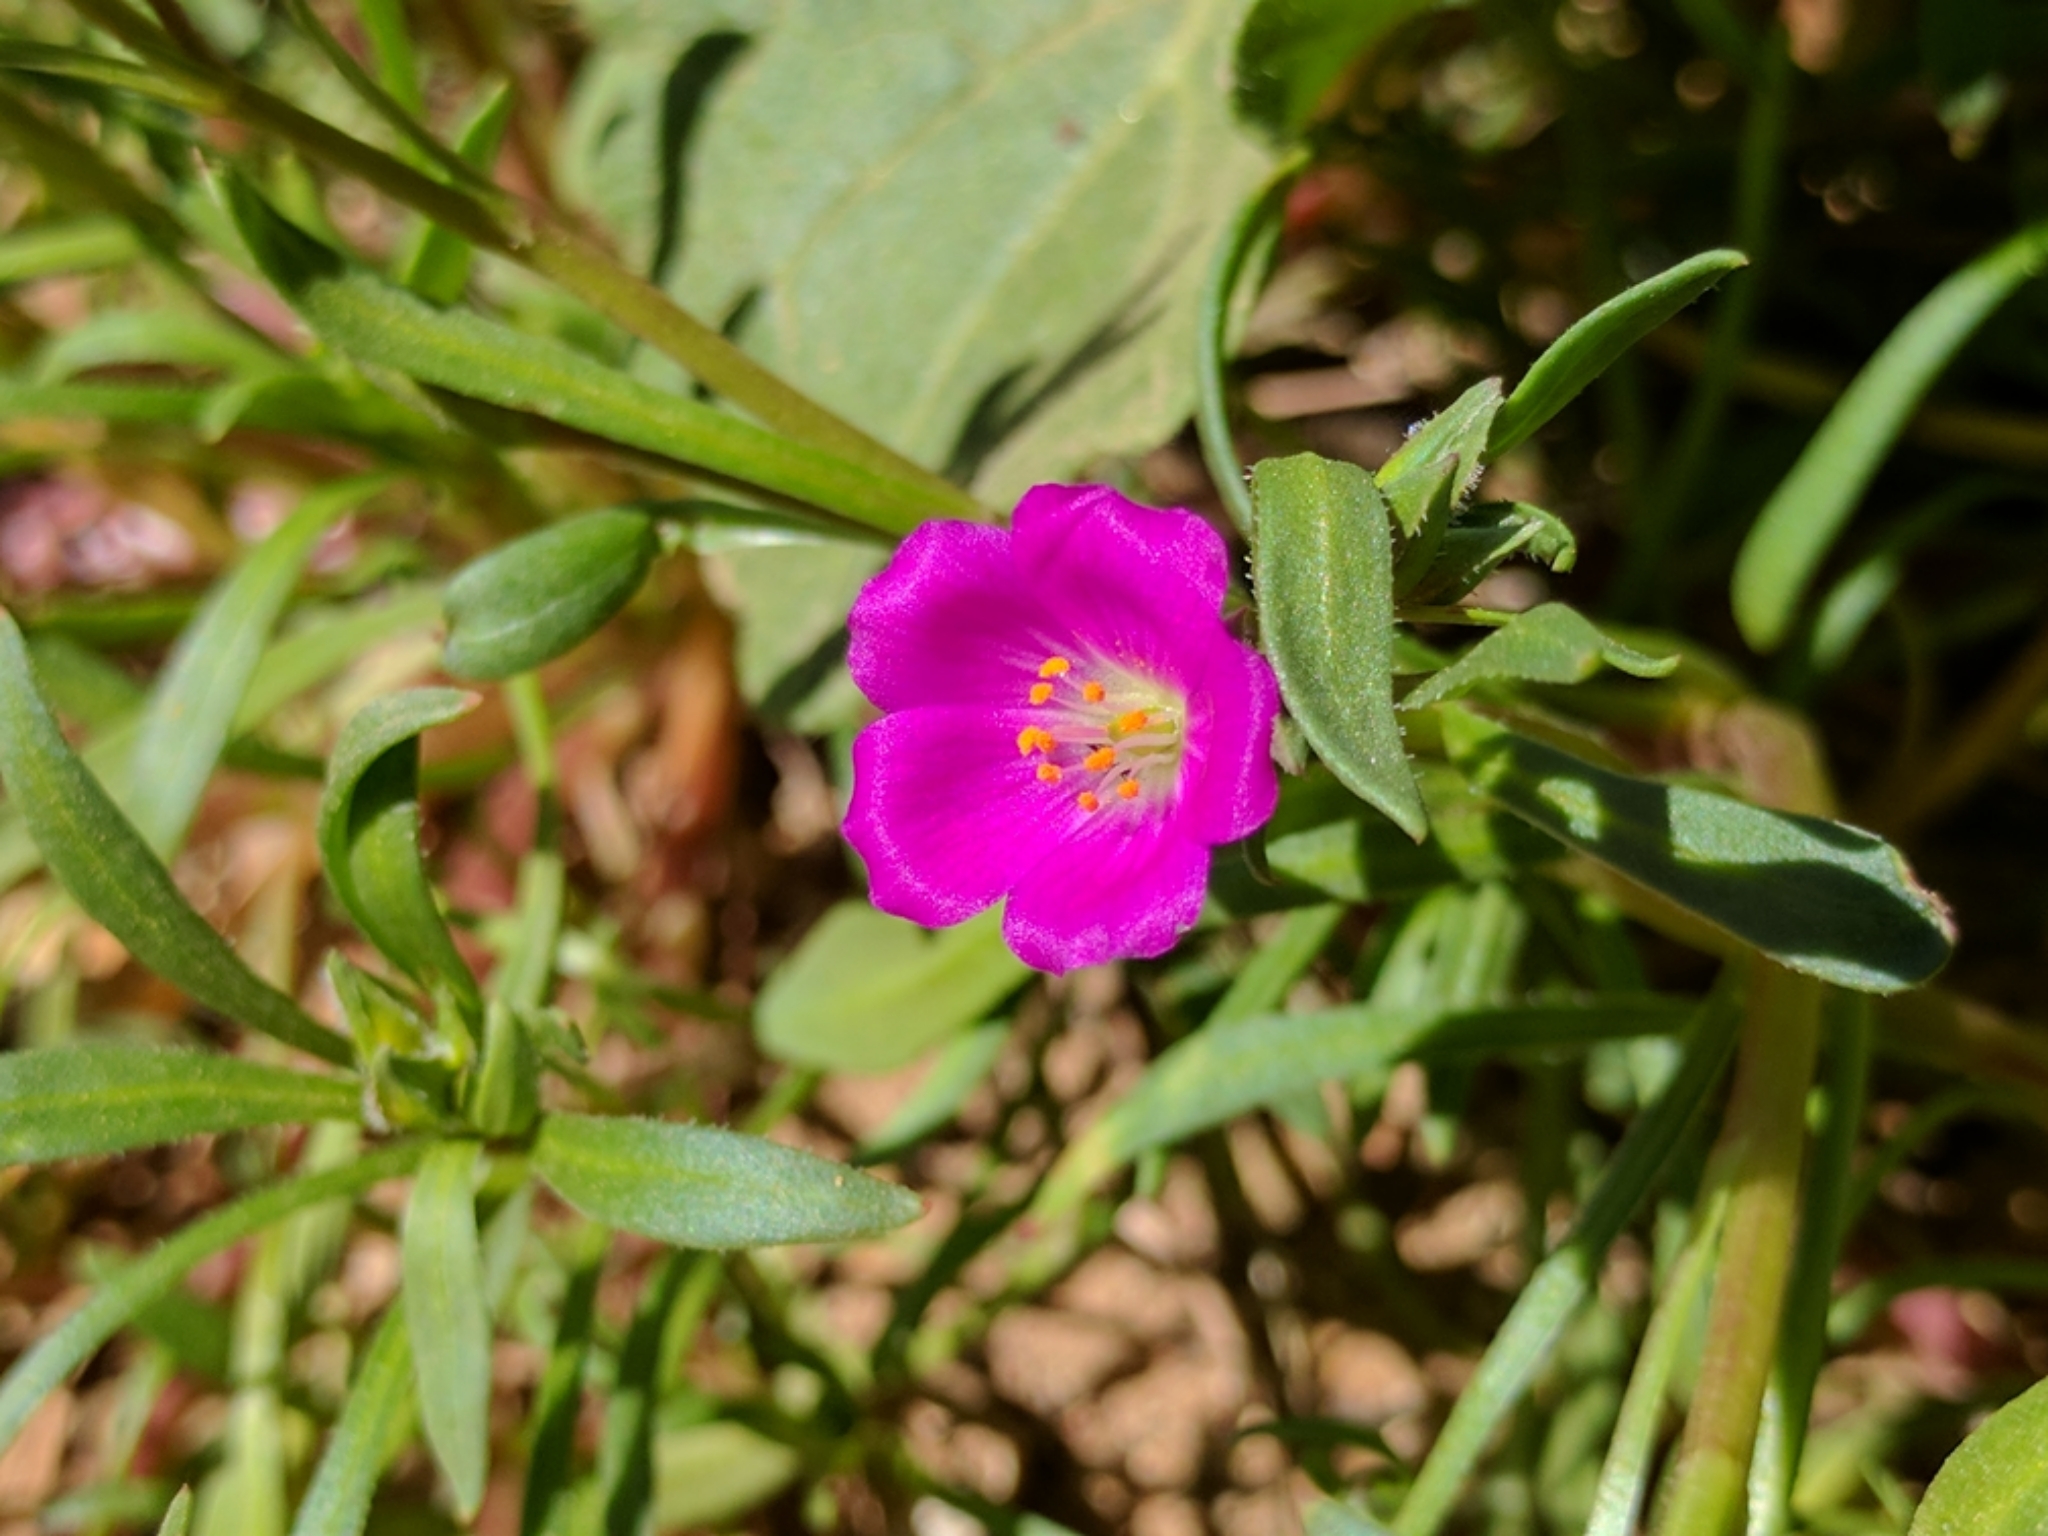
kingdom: Plantae
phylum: Tracheophyta
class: Magnoliopsida
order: Caryophyllales
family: Montiaceae
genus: Calandrinia
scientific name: Calandrinia menziesii
